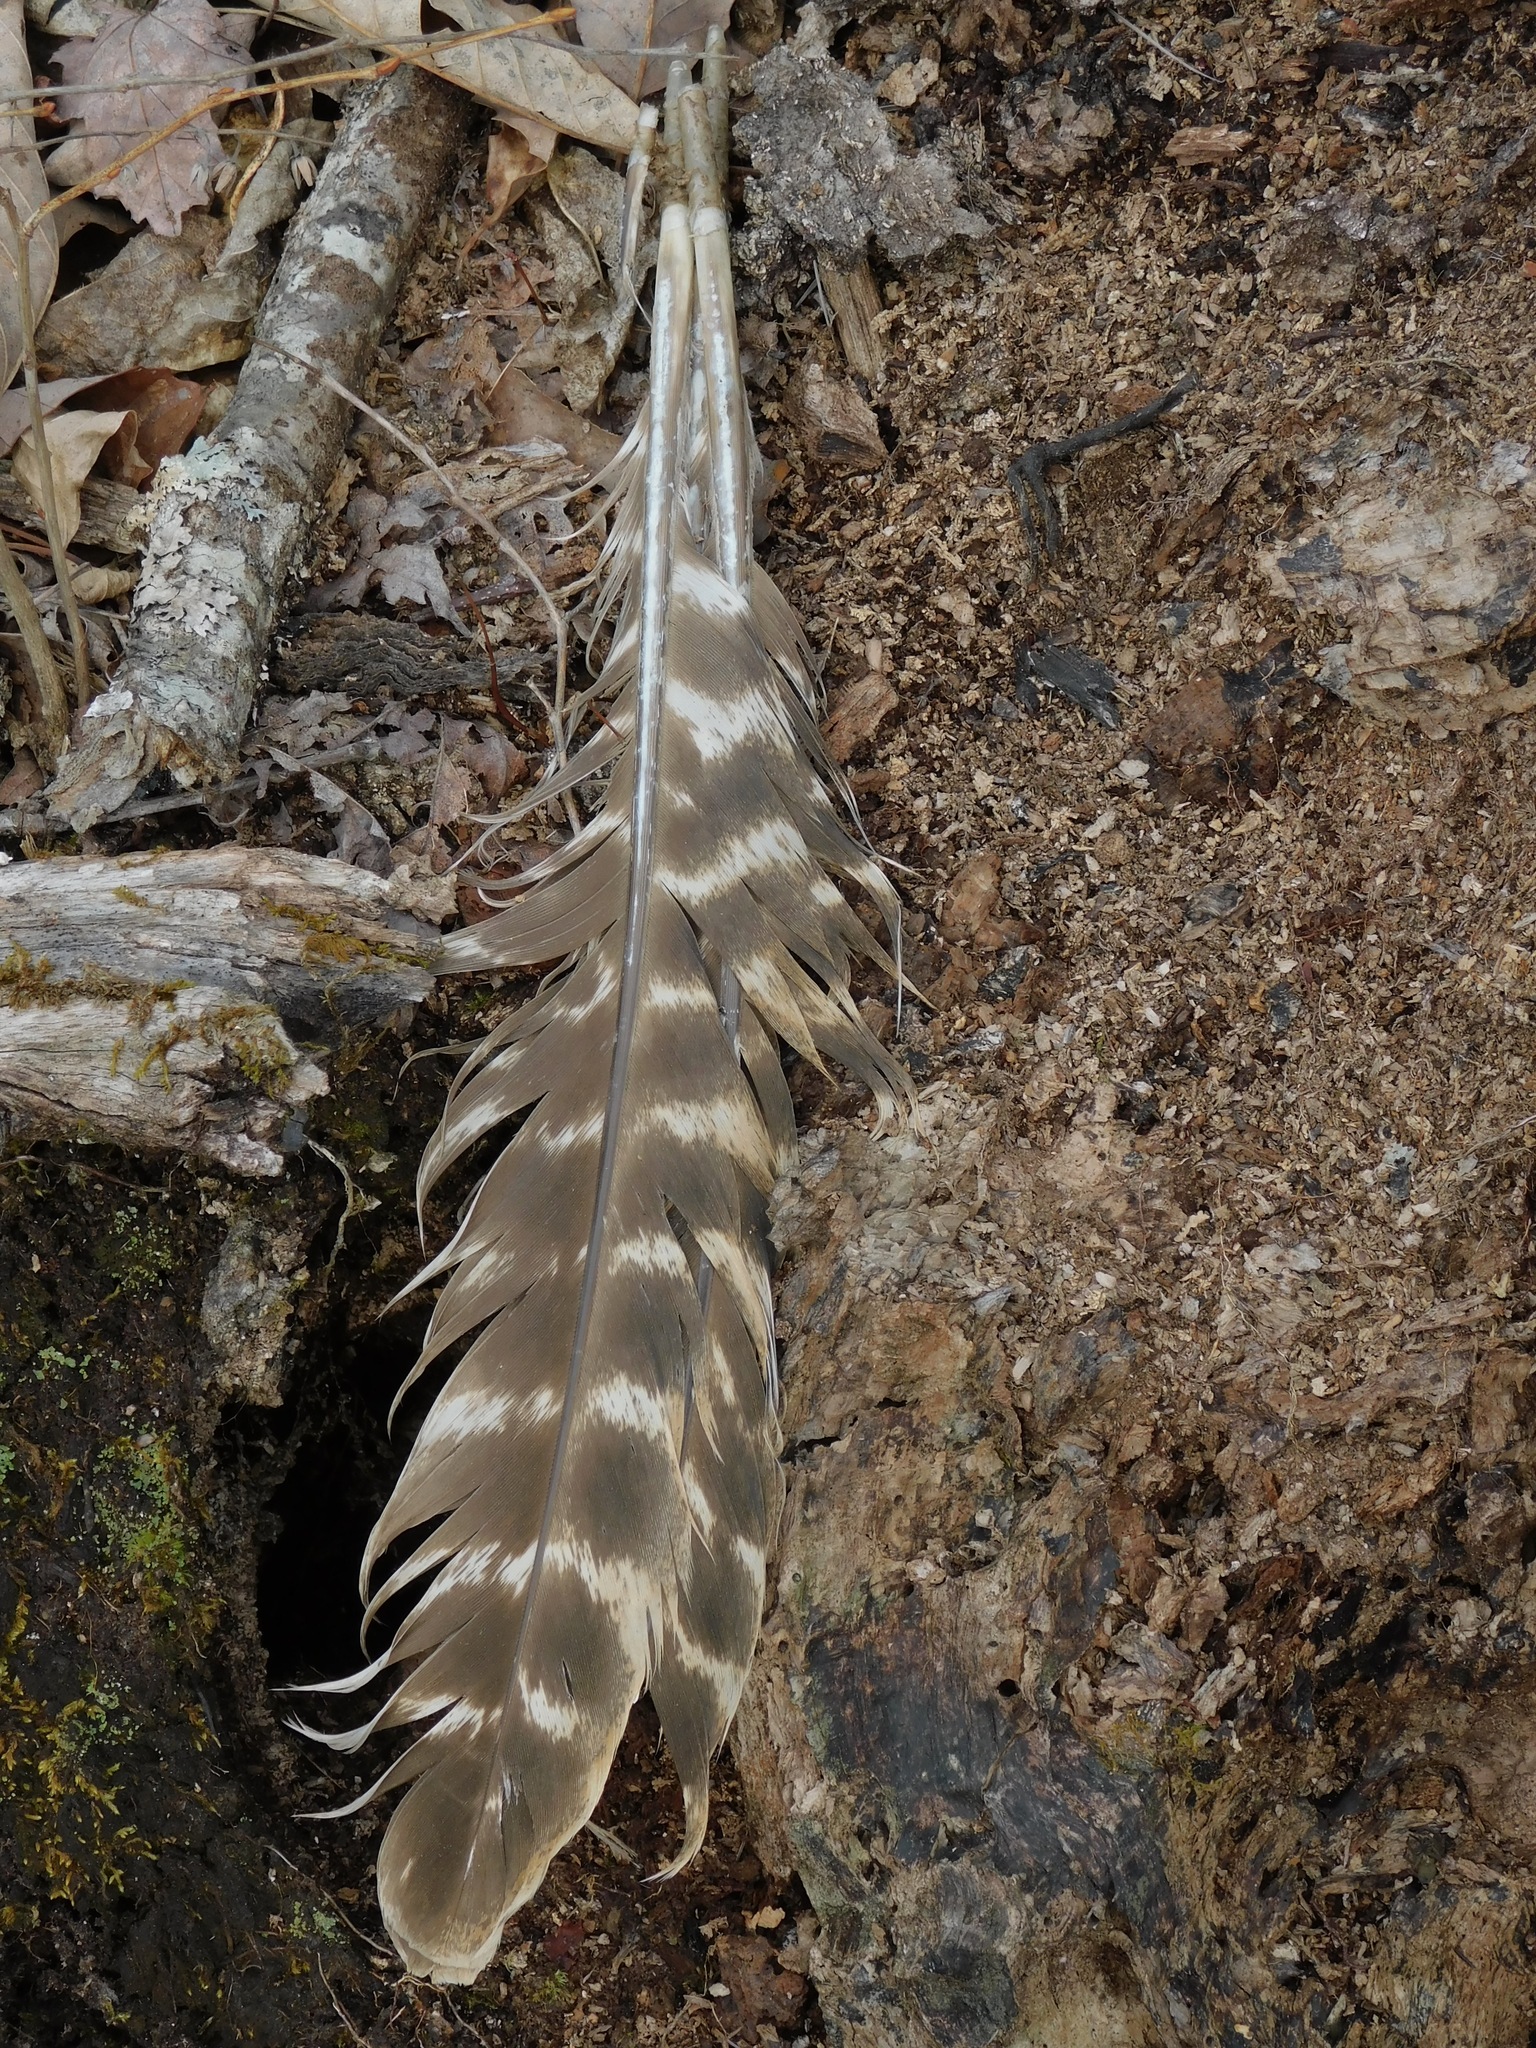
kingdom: Animalia
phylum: Chordata
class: Aves
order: Galliformes
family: Phasianidae
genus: Meleagris
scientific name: Meleagris gallopavo
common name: Wild turkey
